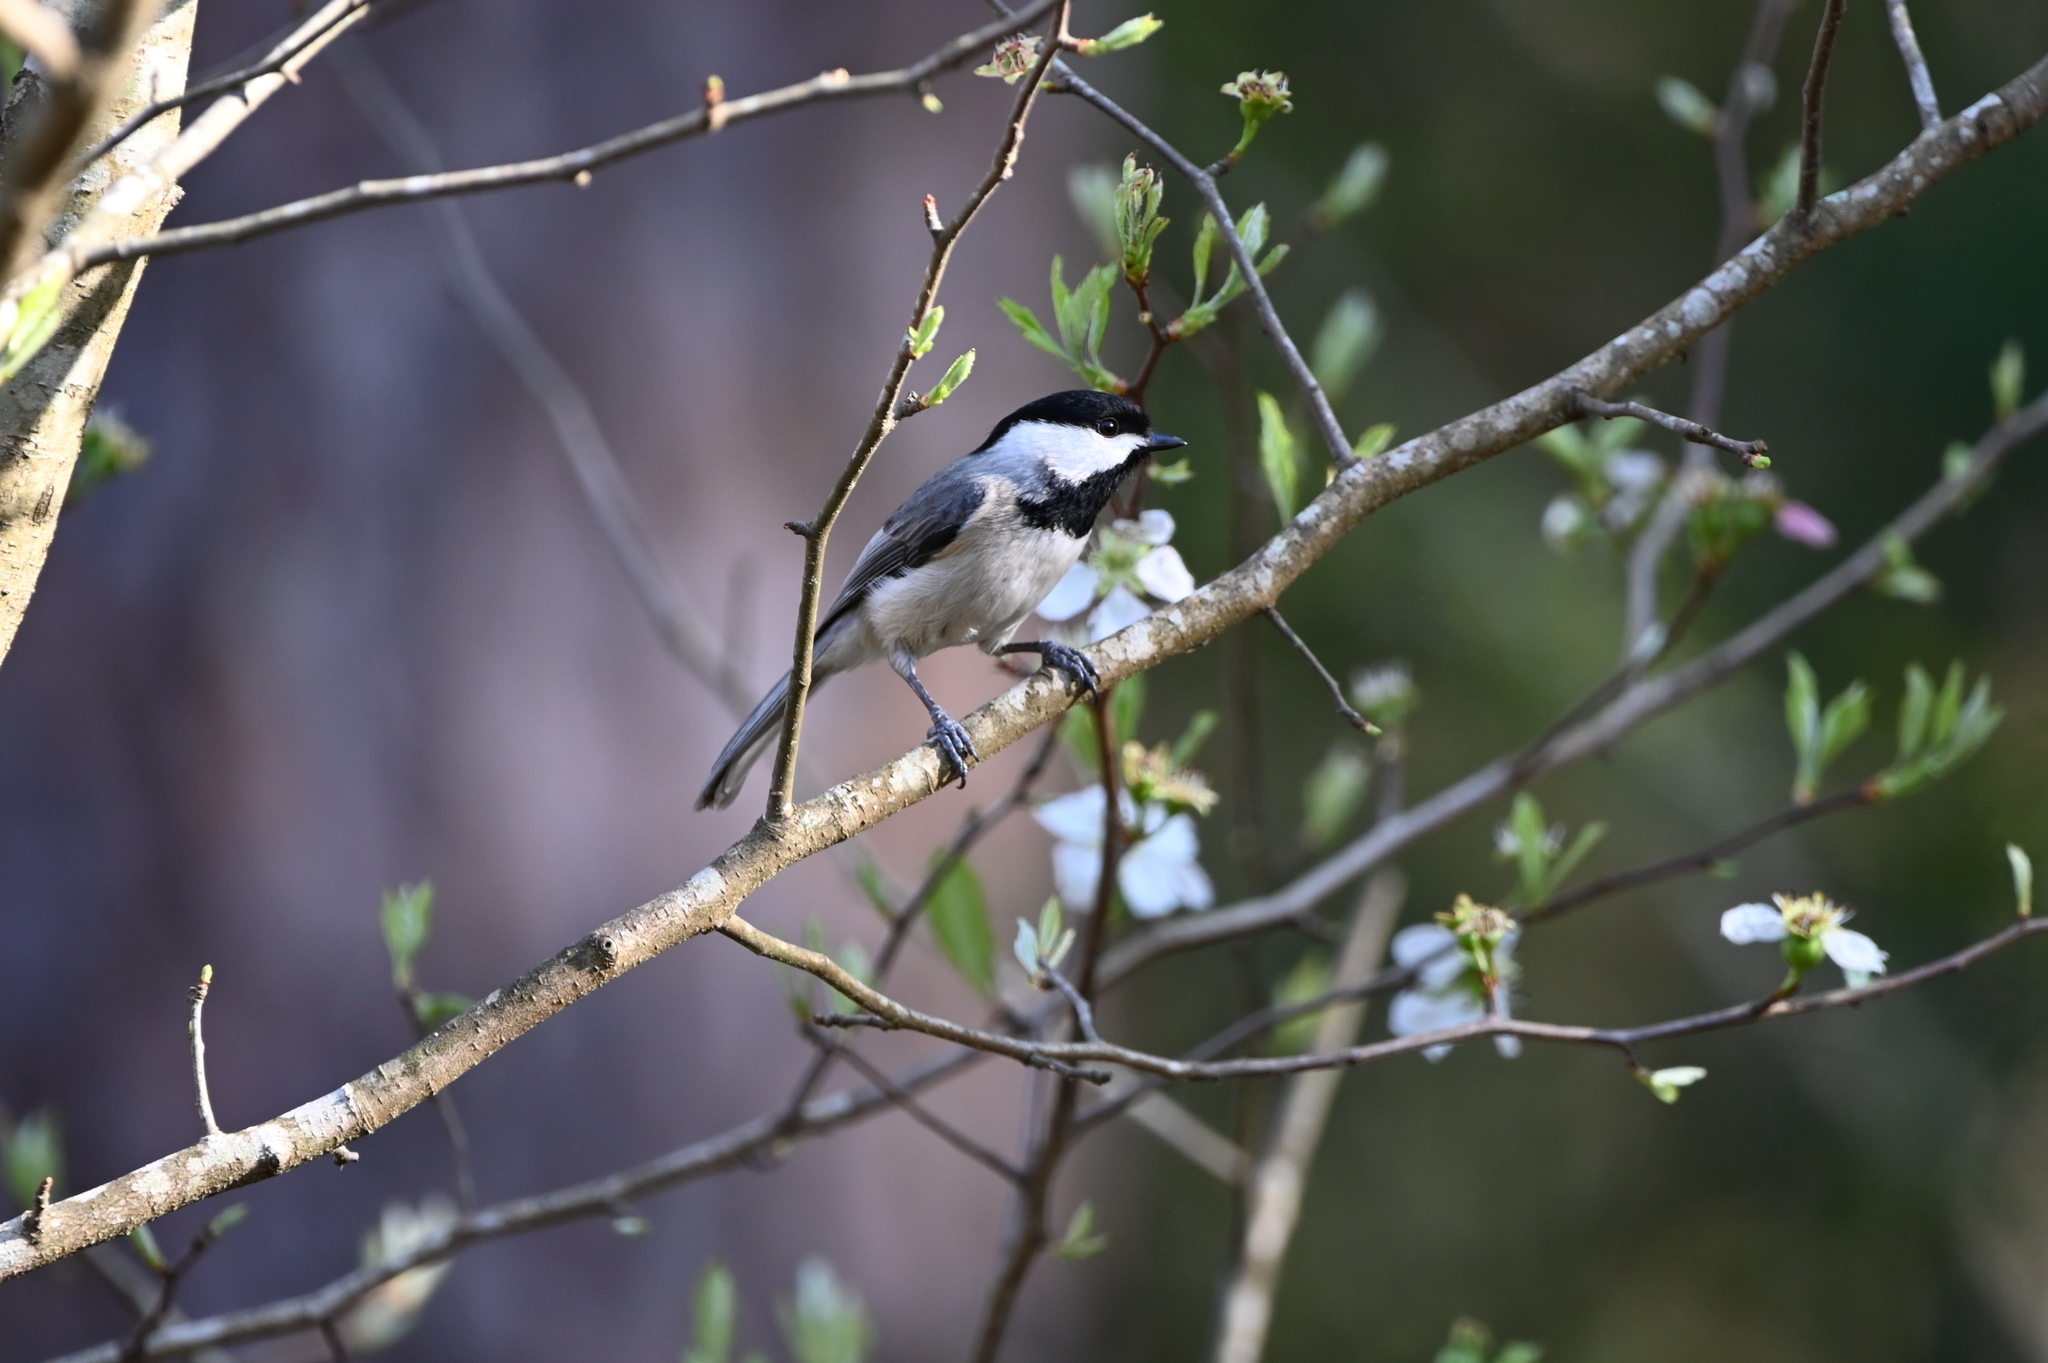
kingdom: Animalia
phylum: Chordata
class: Aves
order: Passeriformes
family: Paridae
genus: Poecile
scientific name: Poecile carolinensis
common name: Carolina chickadee
